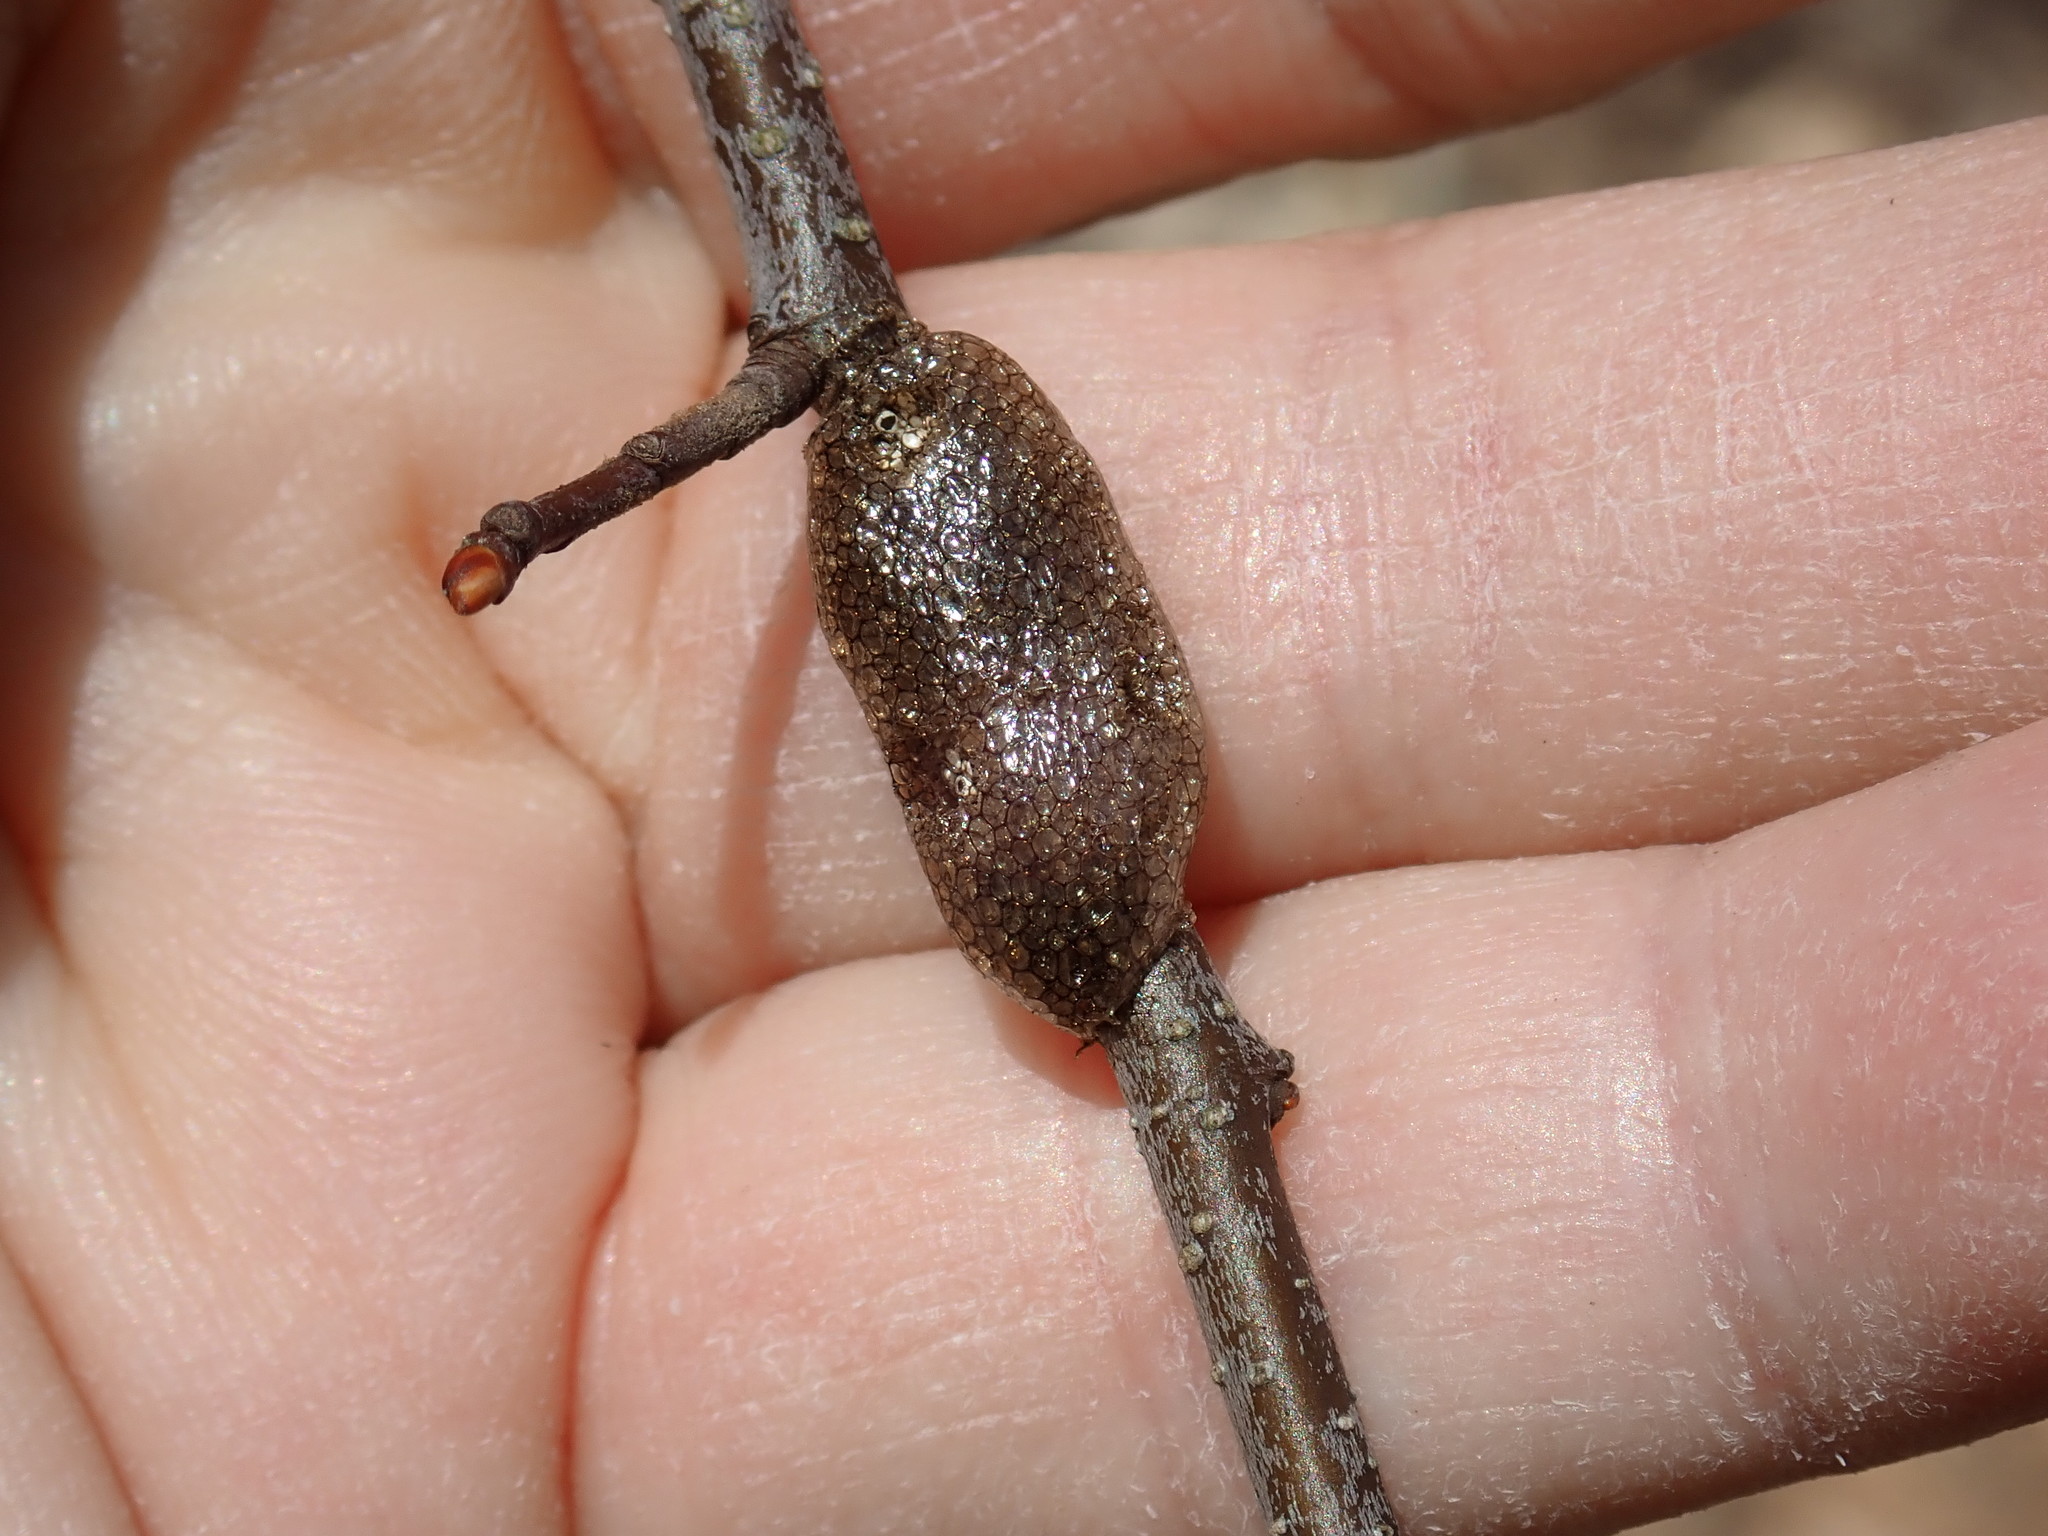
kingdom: Animalia
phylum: Arthropoda
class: Insecta
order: Lepidoptera
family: Lasiocampidae
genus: Malacosoma
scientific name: Malacosoma americana
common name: Eastern tent caterpillar moth
